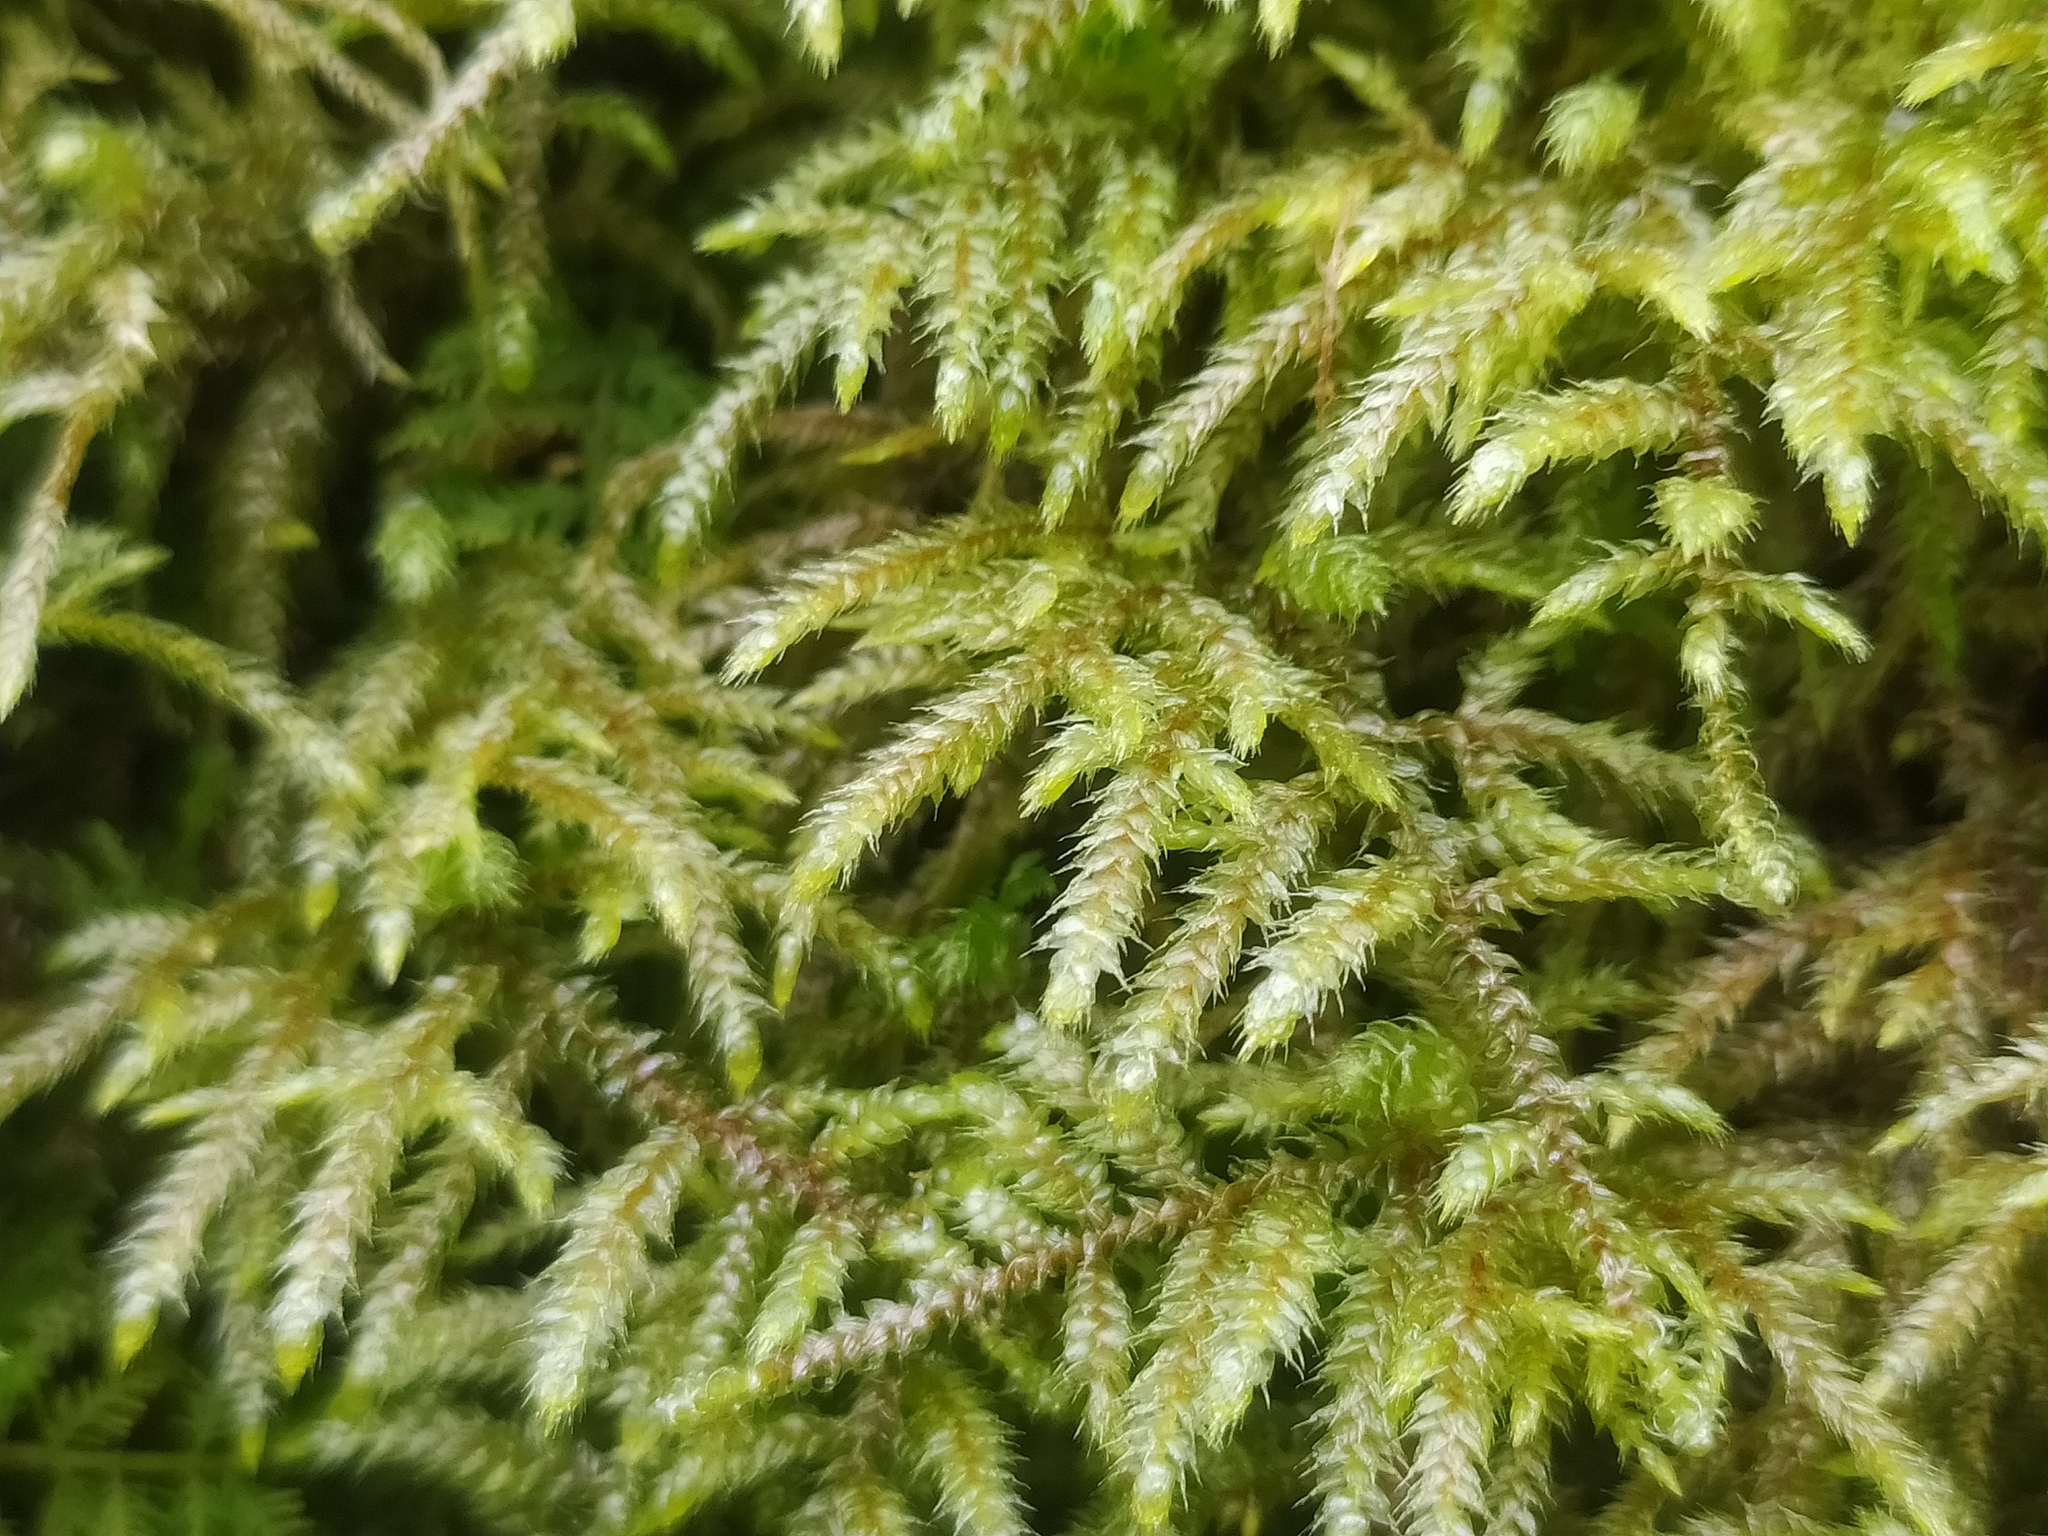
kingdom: Plantae
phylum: Bryophyta
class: Bryopsida
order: Hypnales
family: Hylocomiaceae
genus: Loeskeobryum
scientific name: Loeskeobryum brevirostre
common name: Short-beaked wood-moss
